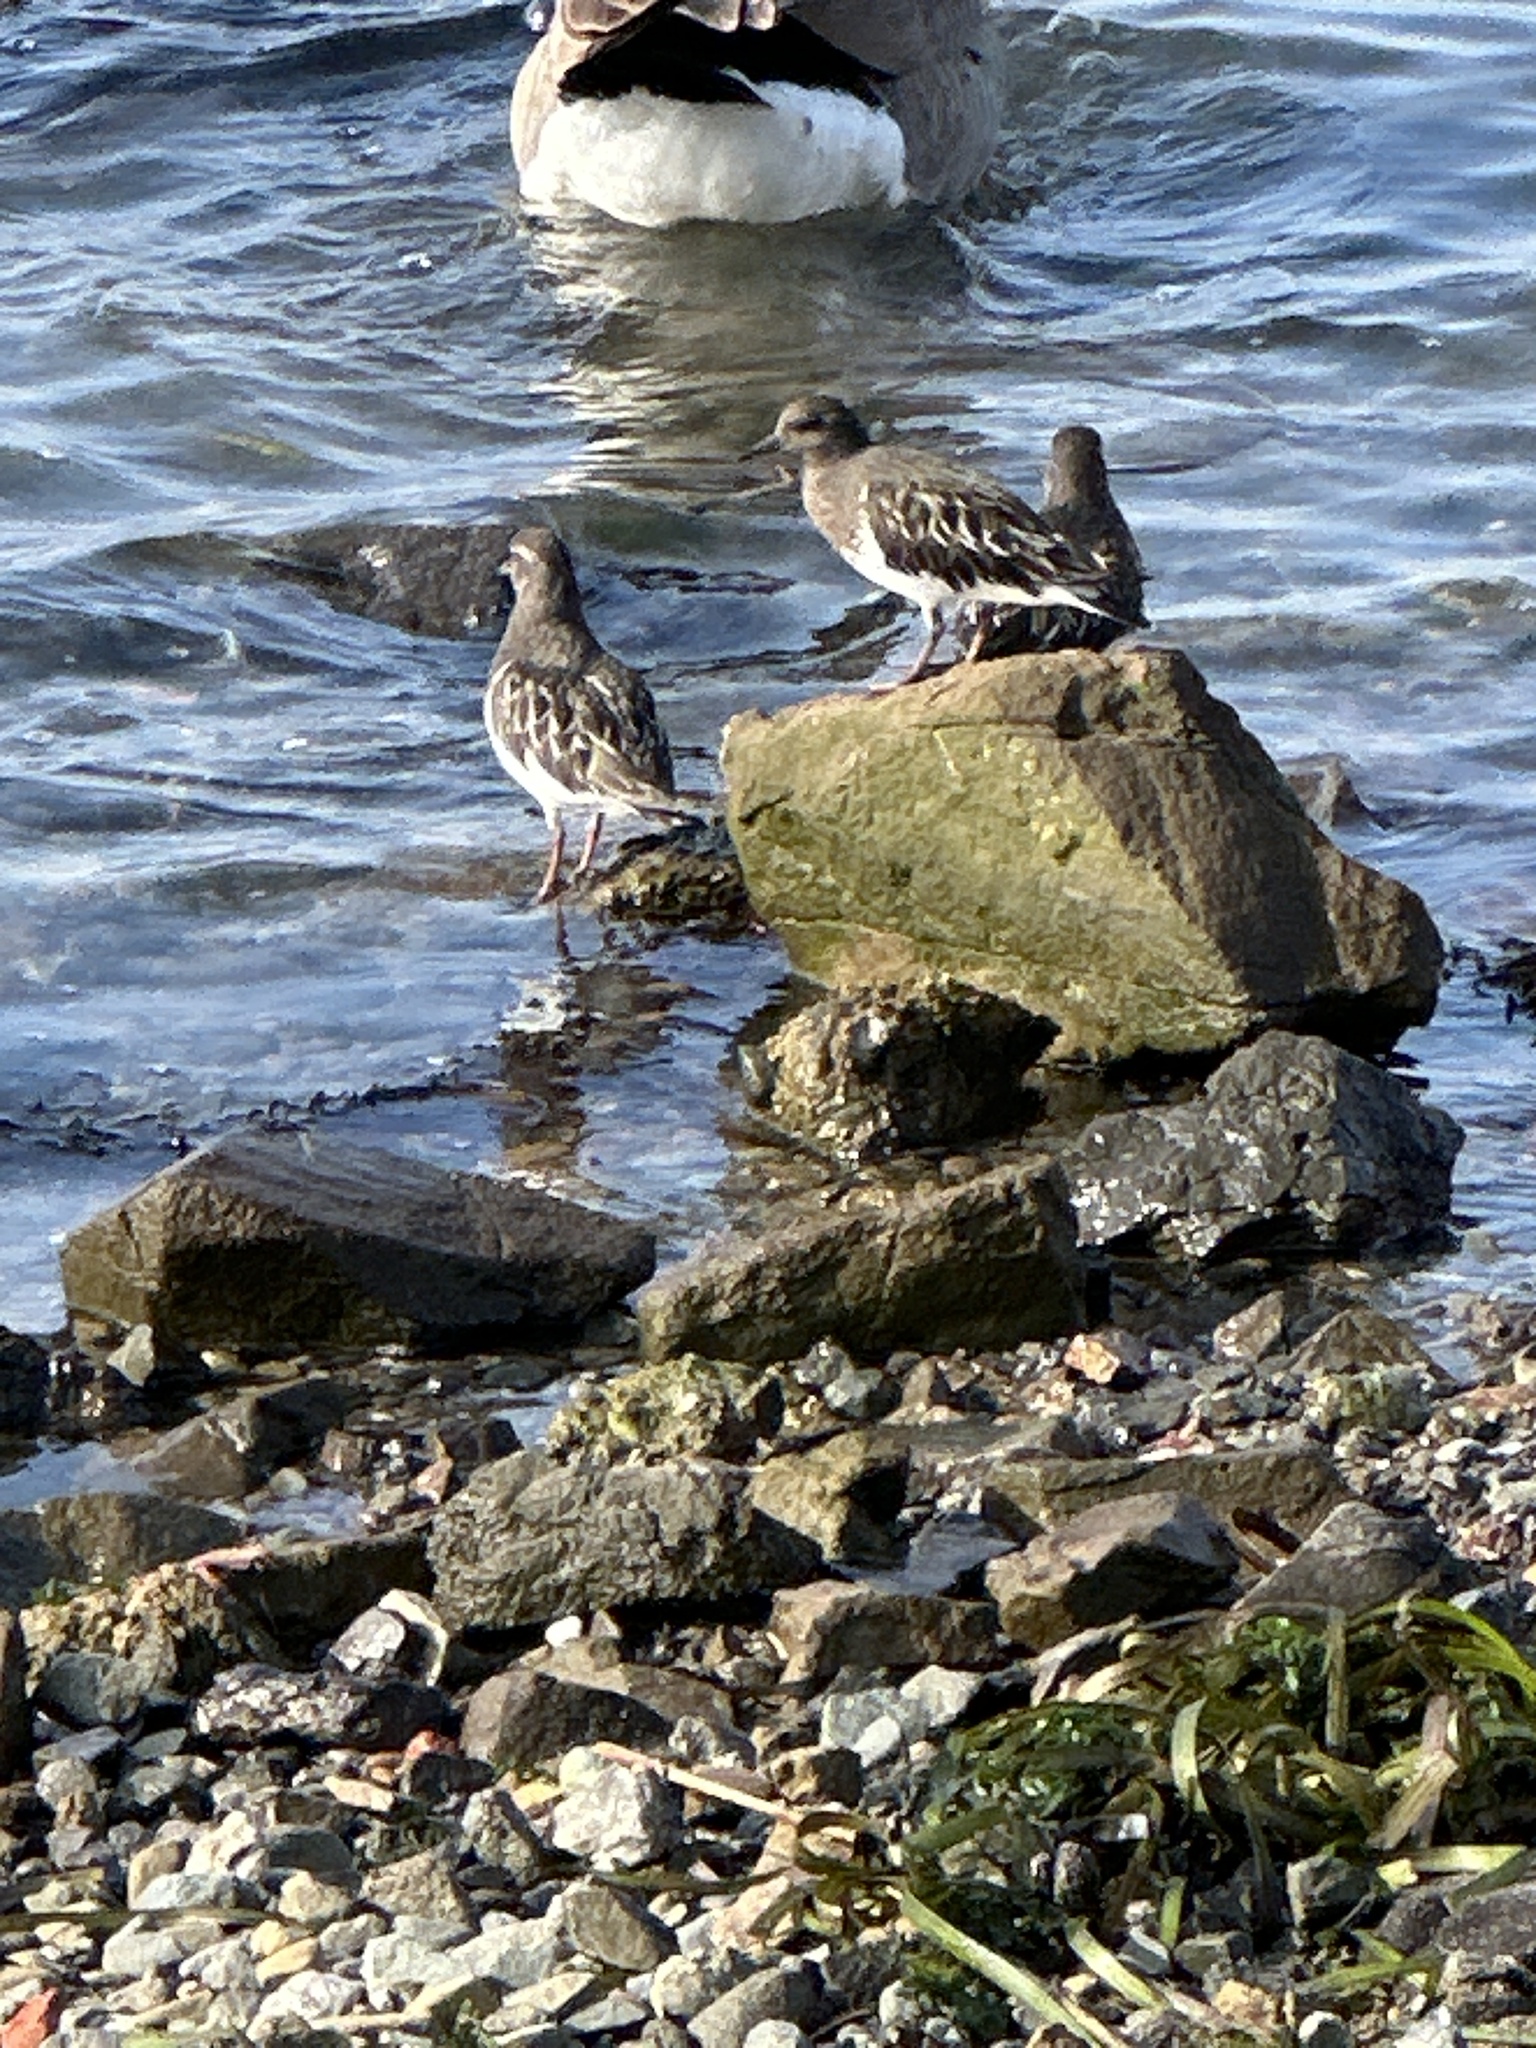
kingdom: Animalia
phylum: Chordata
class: Aves
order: Charadriiformes
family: Scolopacidae
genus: Arenaria
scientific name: Arenaria melanocephala
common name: Black turnstone
